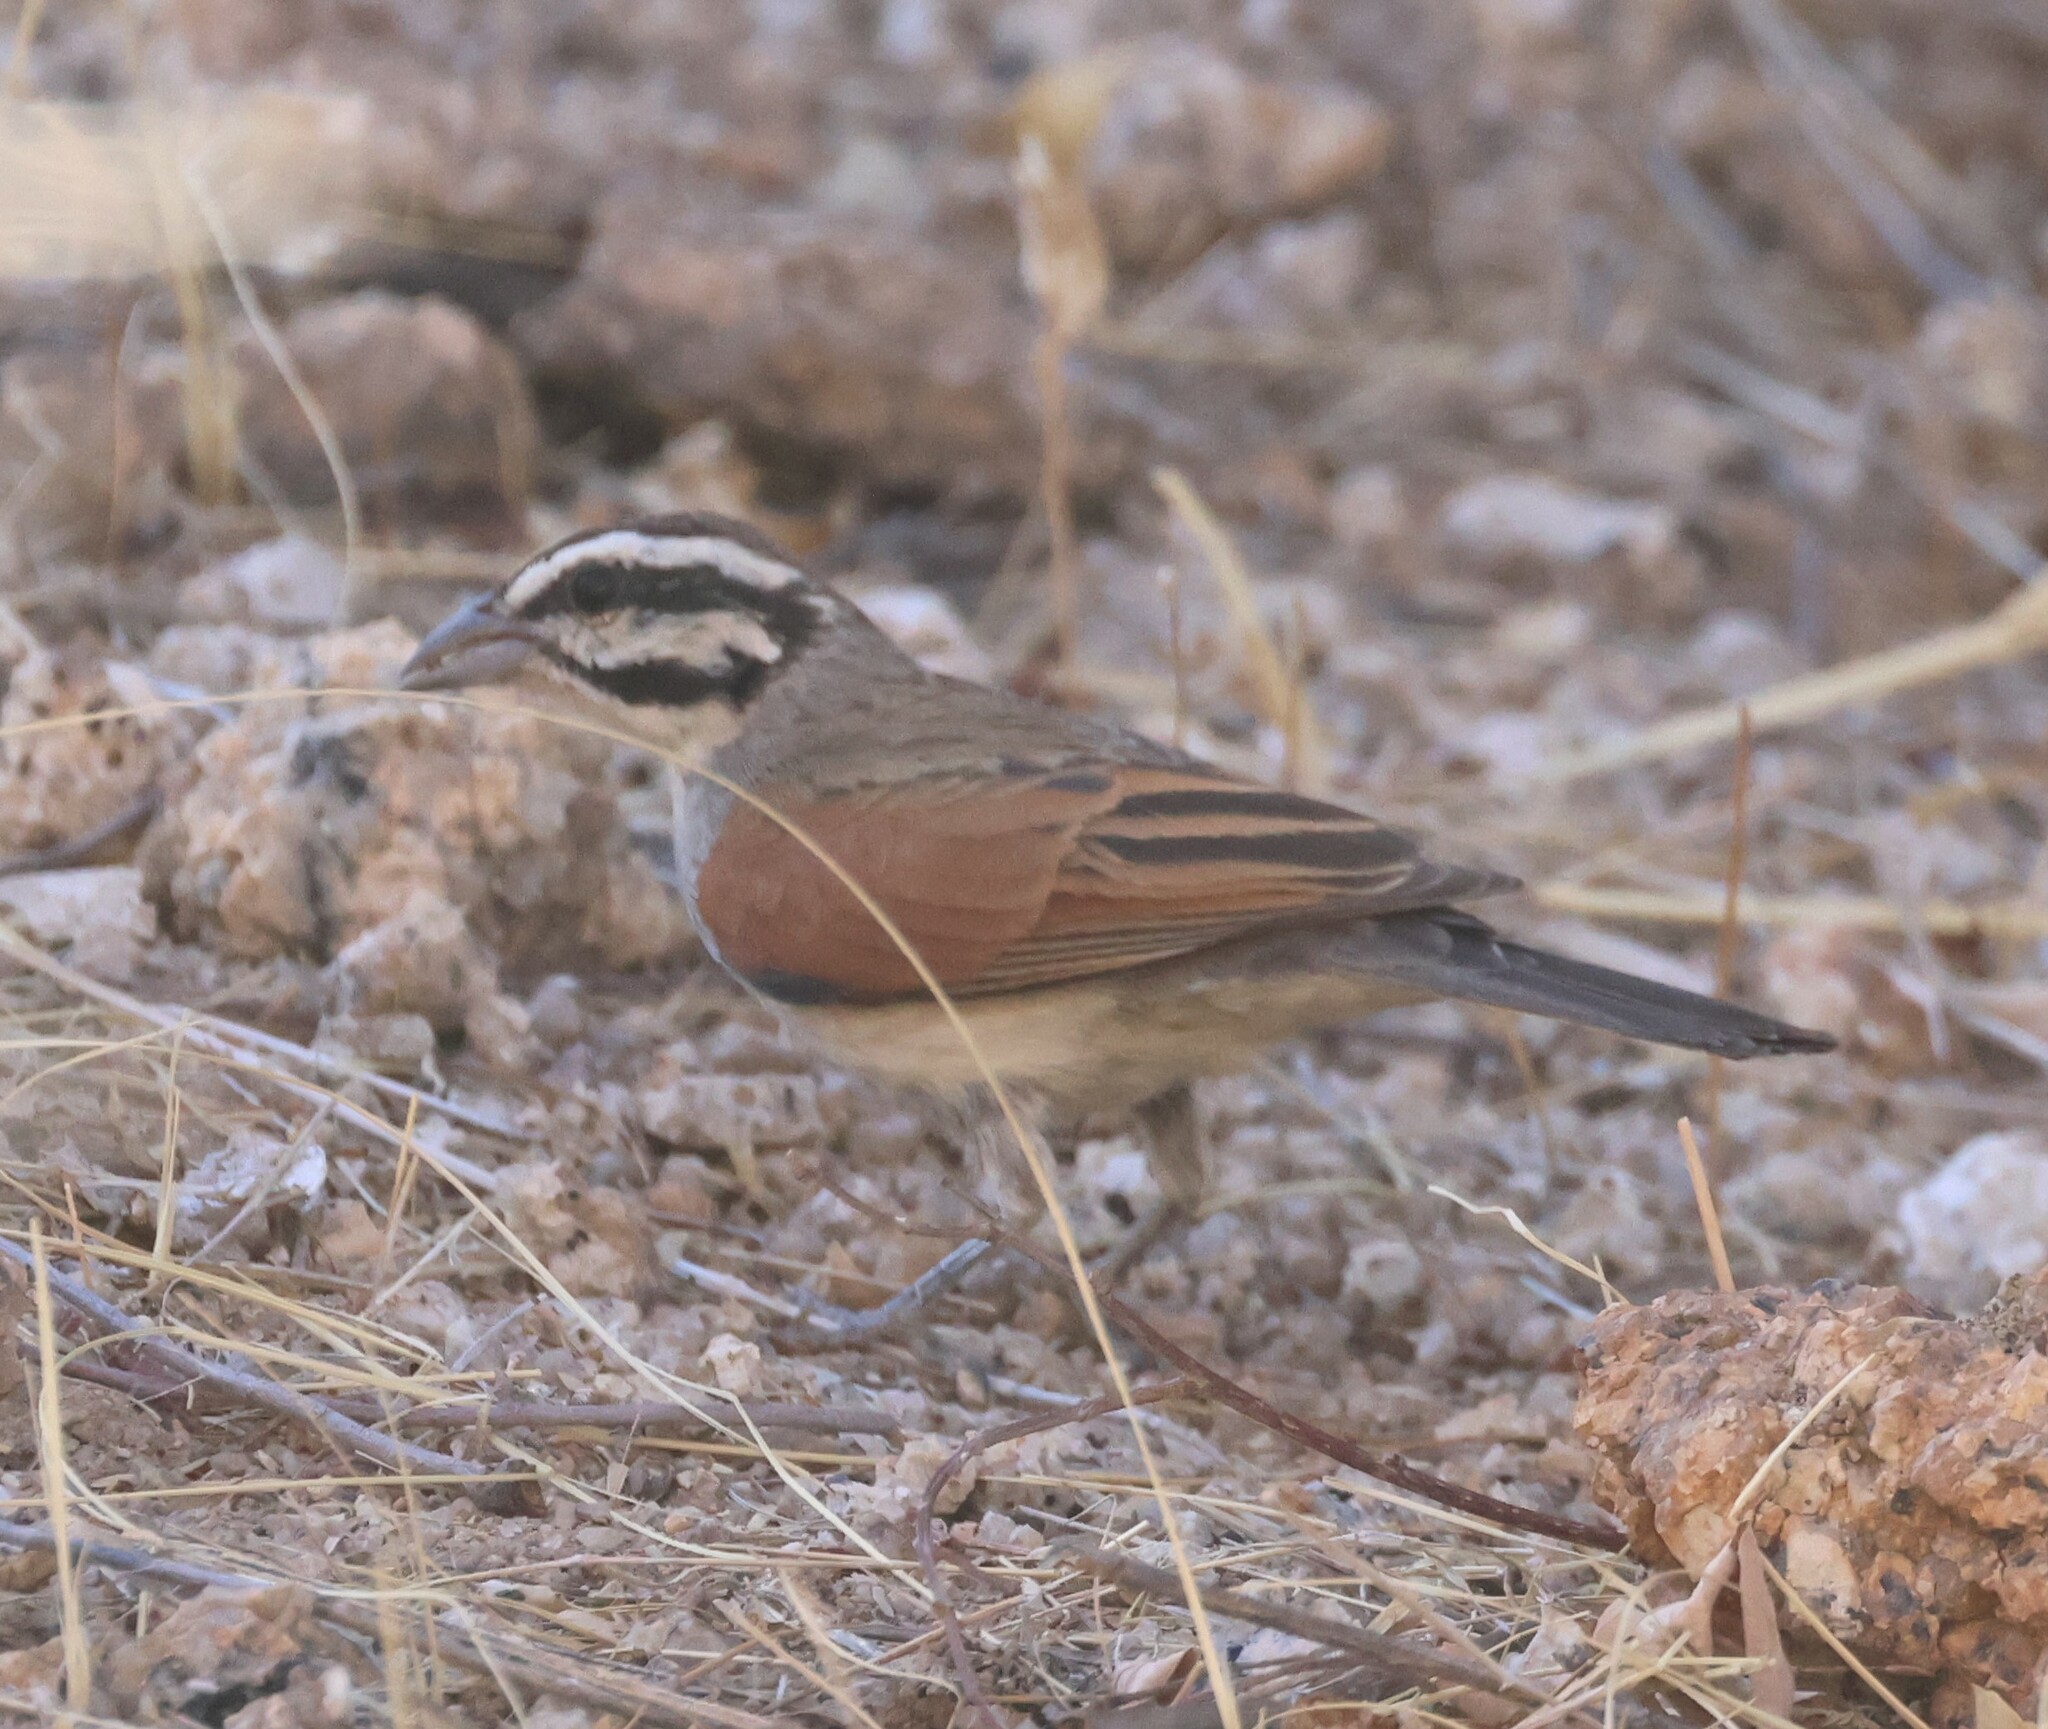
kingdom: Animalia
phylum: Chordata
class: Aves
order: Passeriformes
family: Emberizidae
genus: Emberiza
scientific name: Emberiza capensis
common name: Cape bunting
